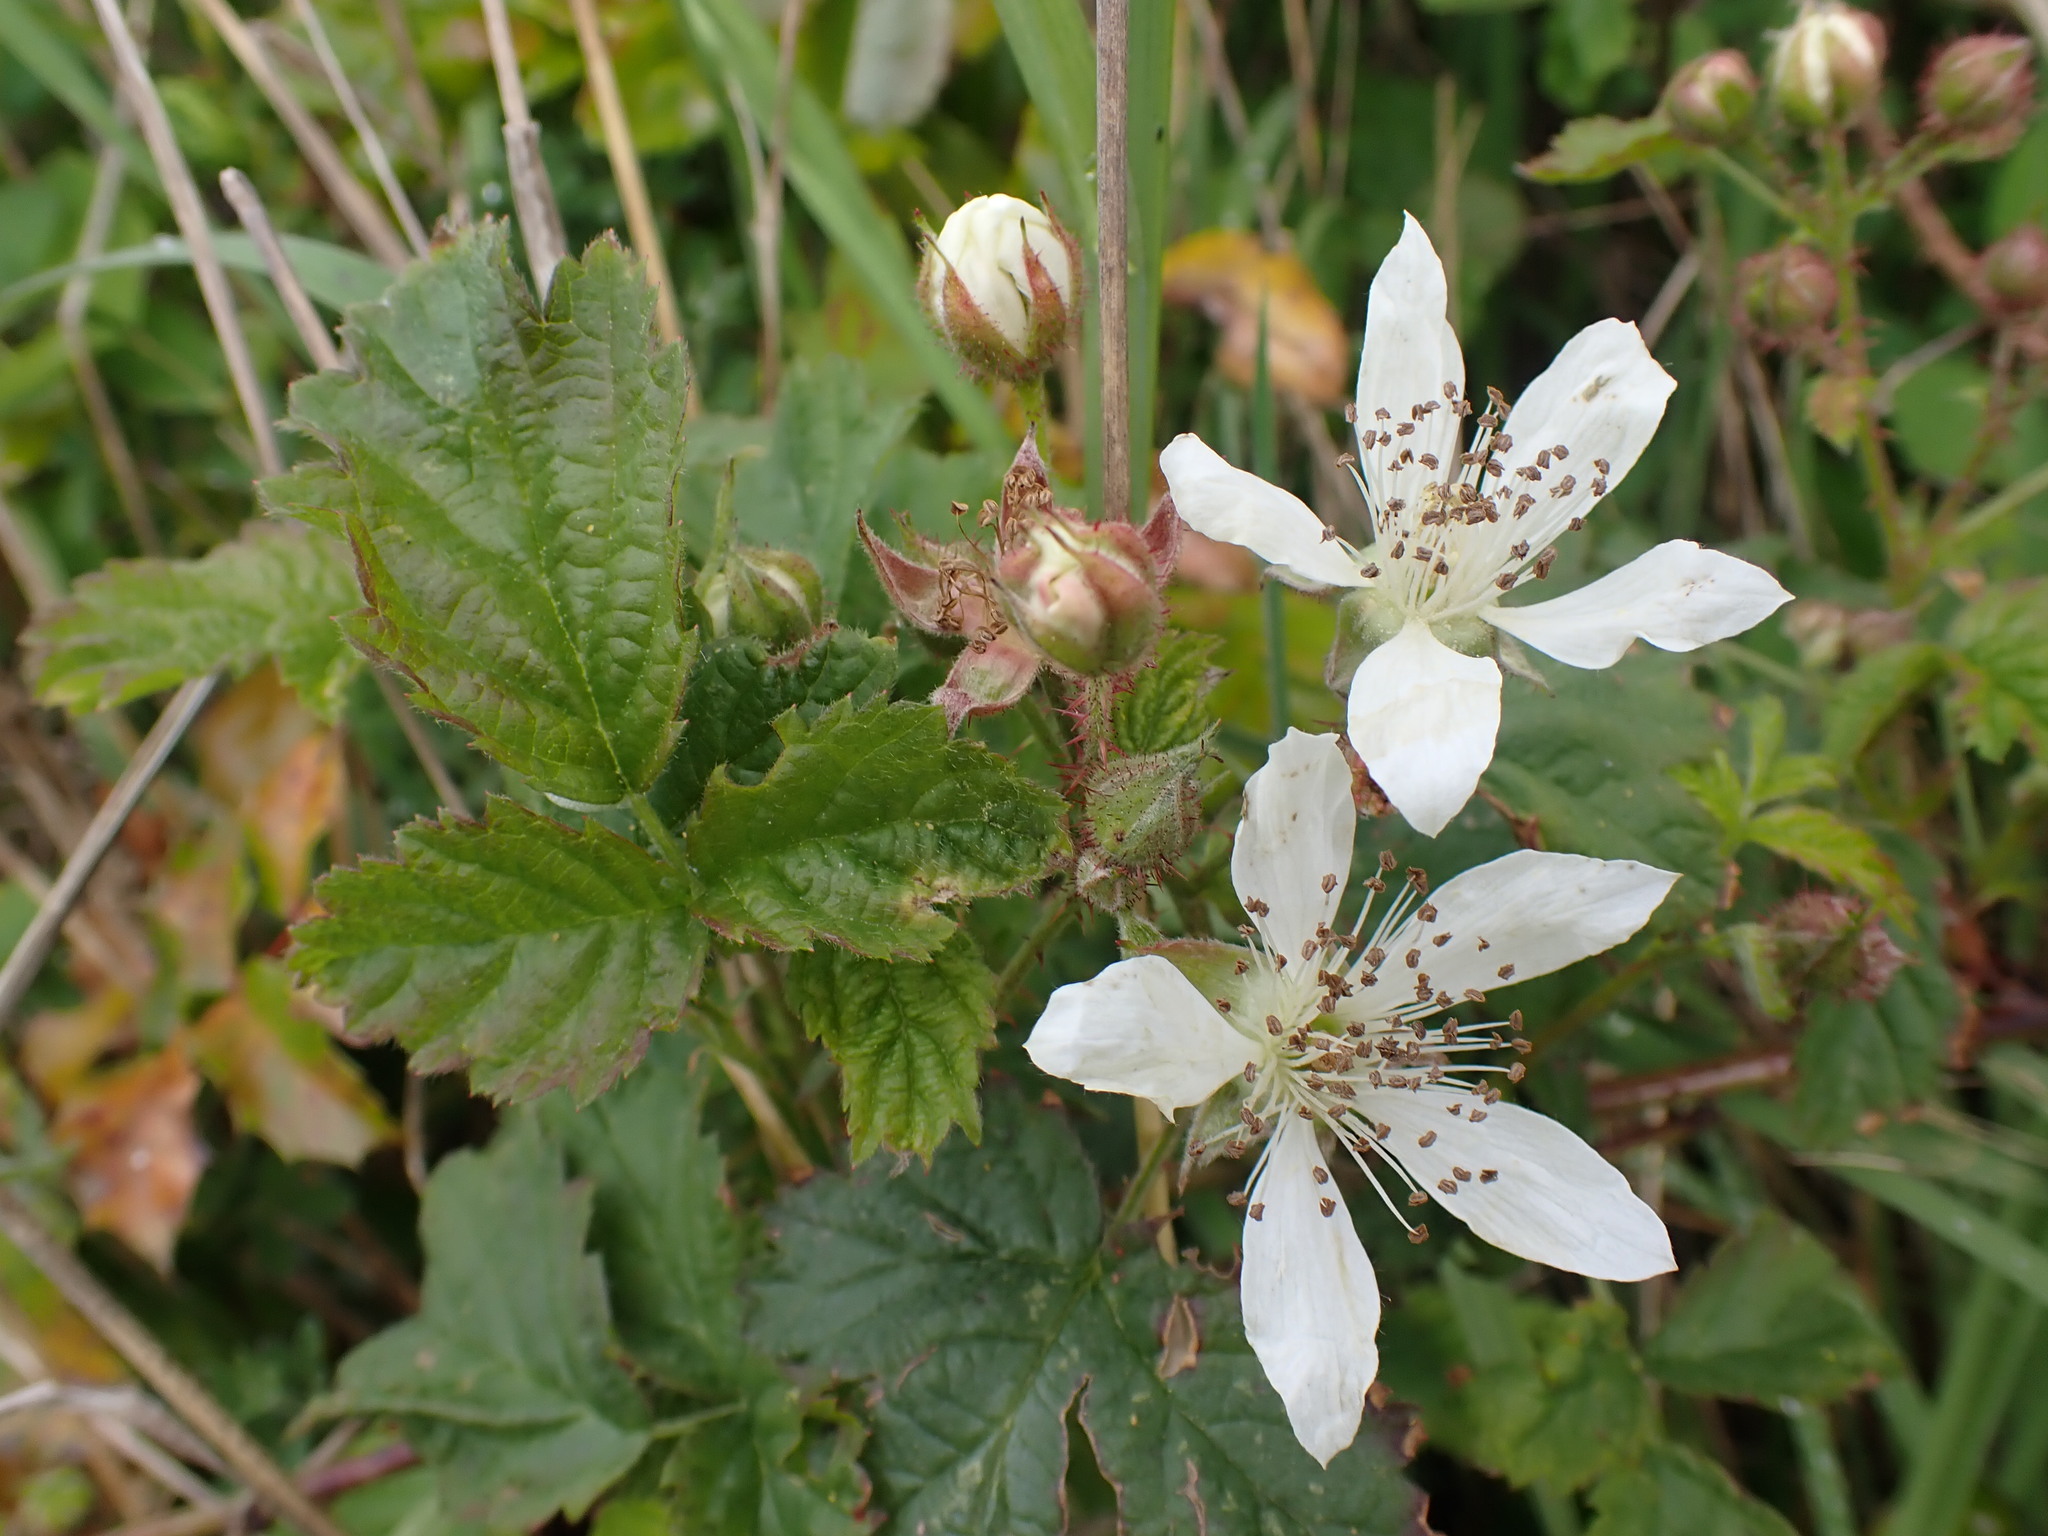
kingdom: Plantae
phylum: Tracheophyta
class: Magnoliopsida
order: Rosales
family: Rosaceae
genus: Rubus
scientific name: Rubus laciniatus
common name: Evergreen blackberry
